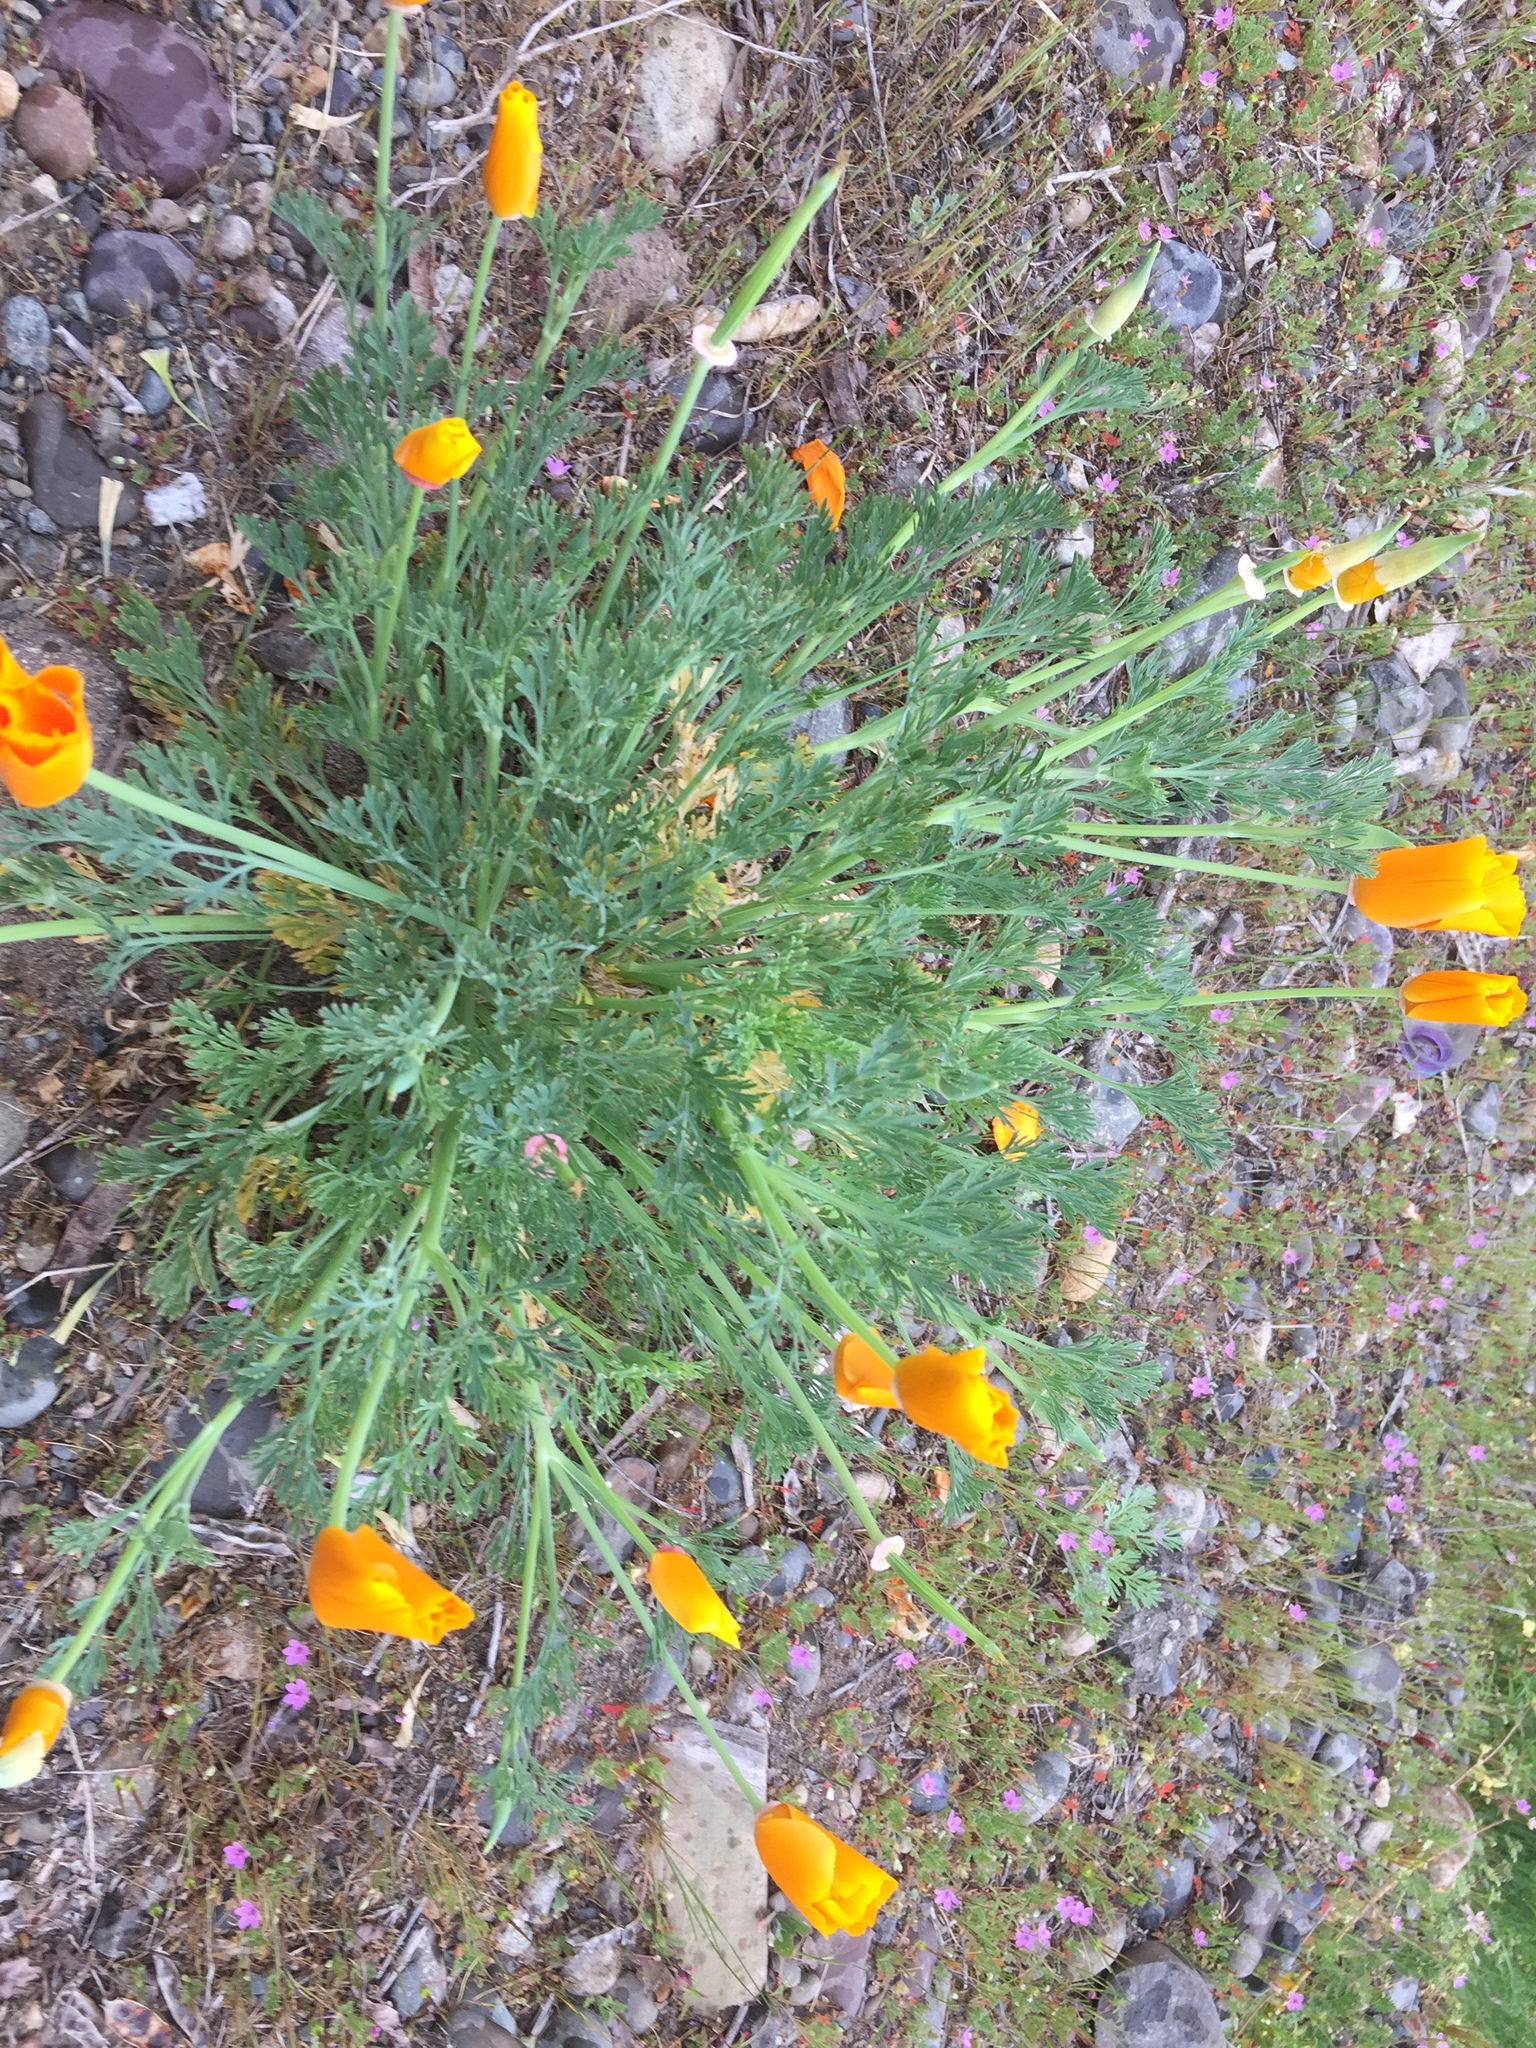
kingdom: Plantae
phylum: Tracheophyta
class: Magnoliopsida
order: Ranunculales
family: Papaveraceae
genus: Eschscholzia
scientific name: Eschscholzia californica
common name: California poppy
